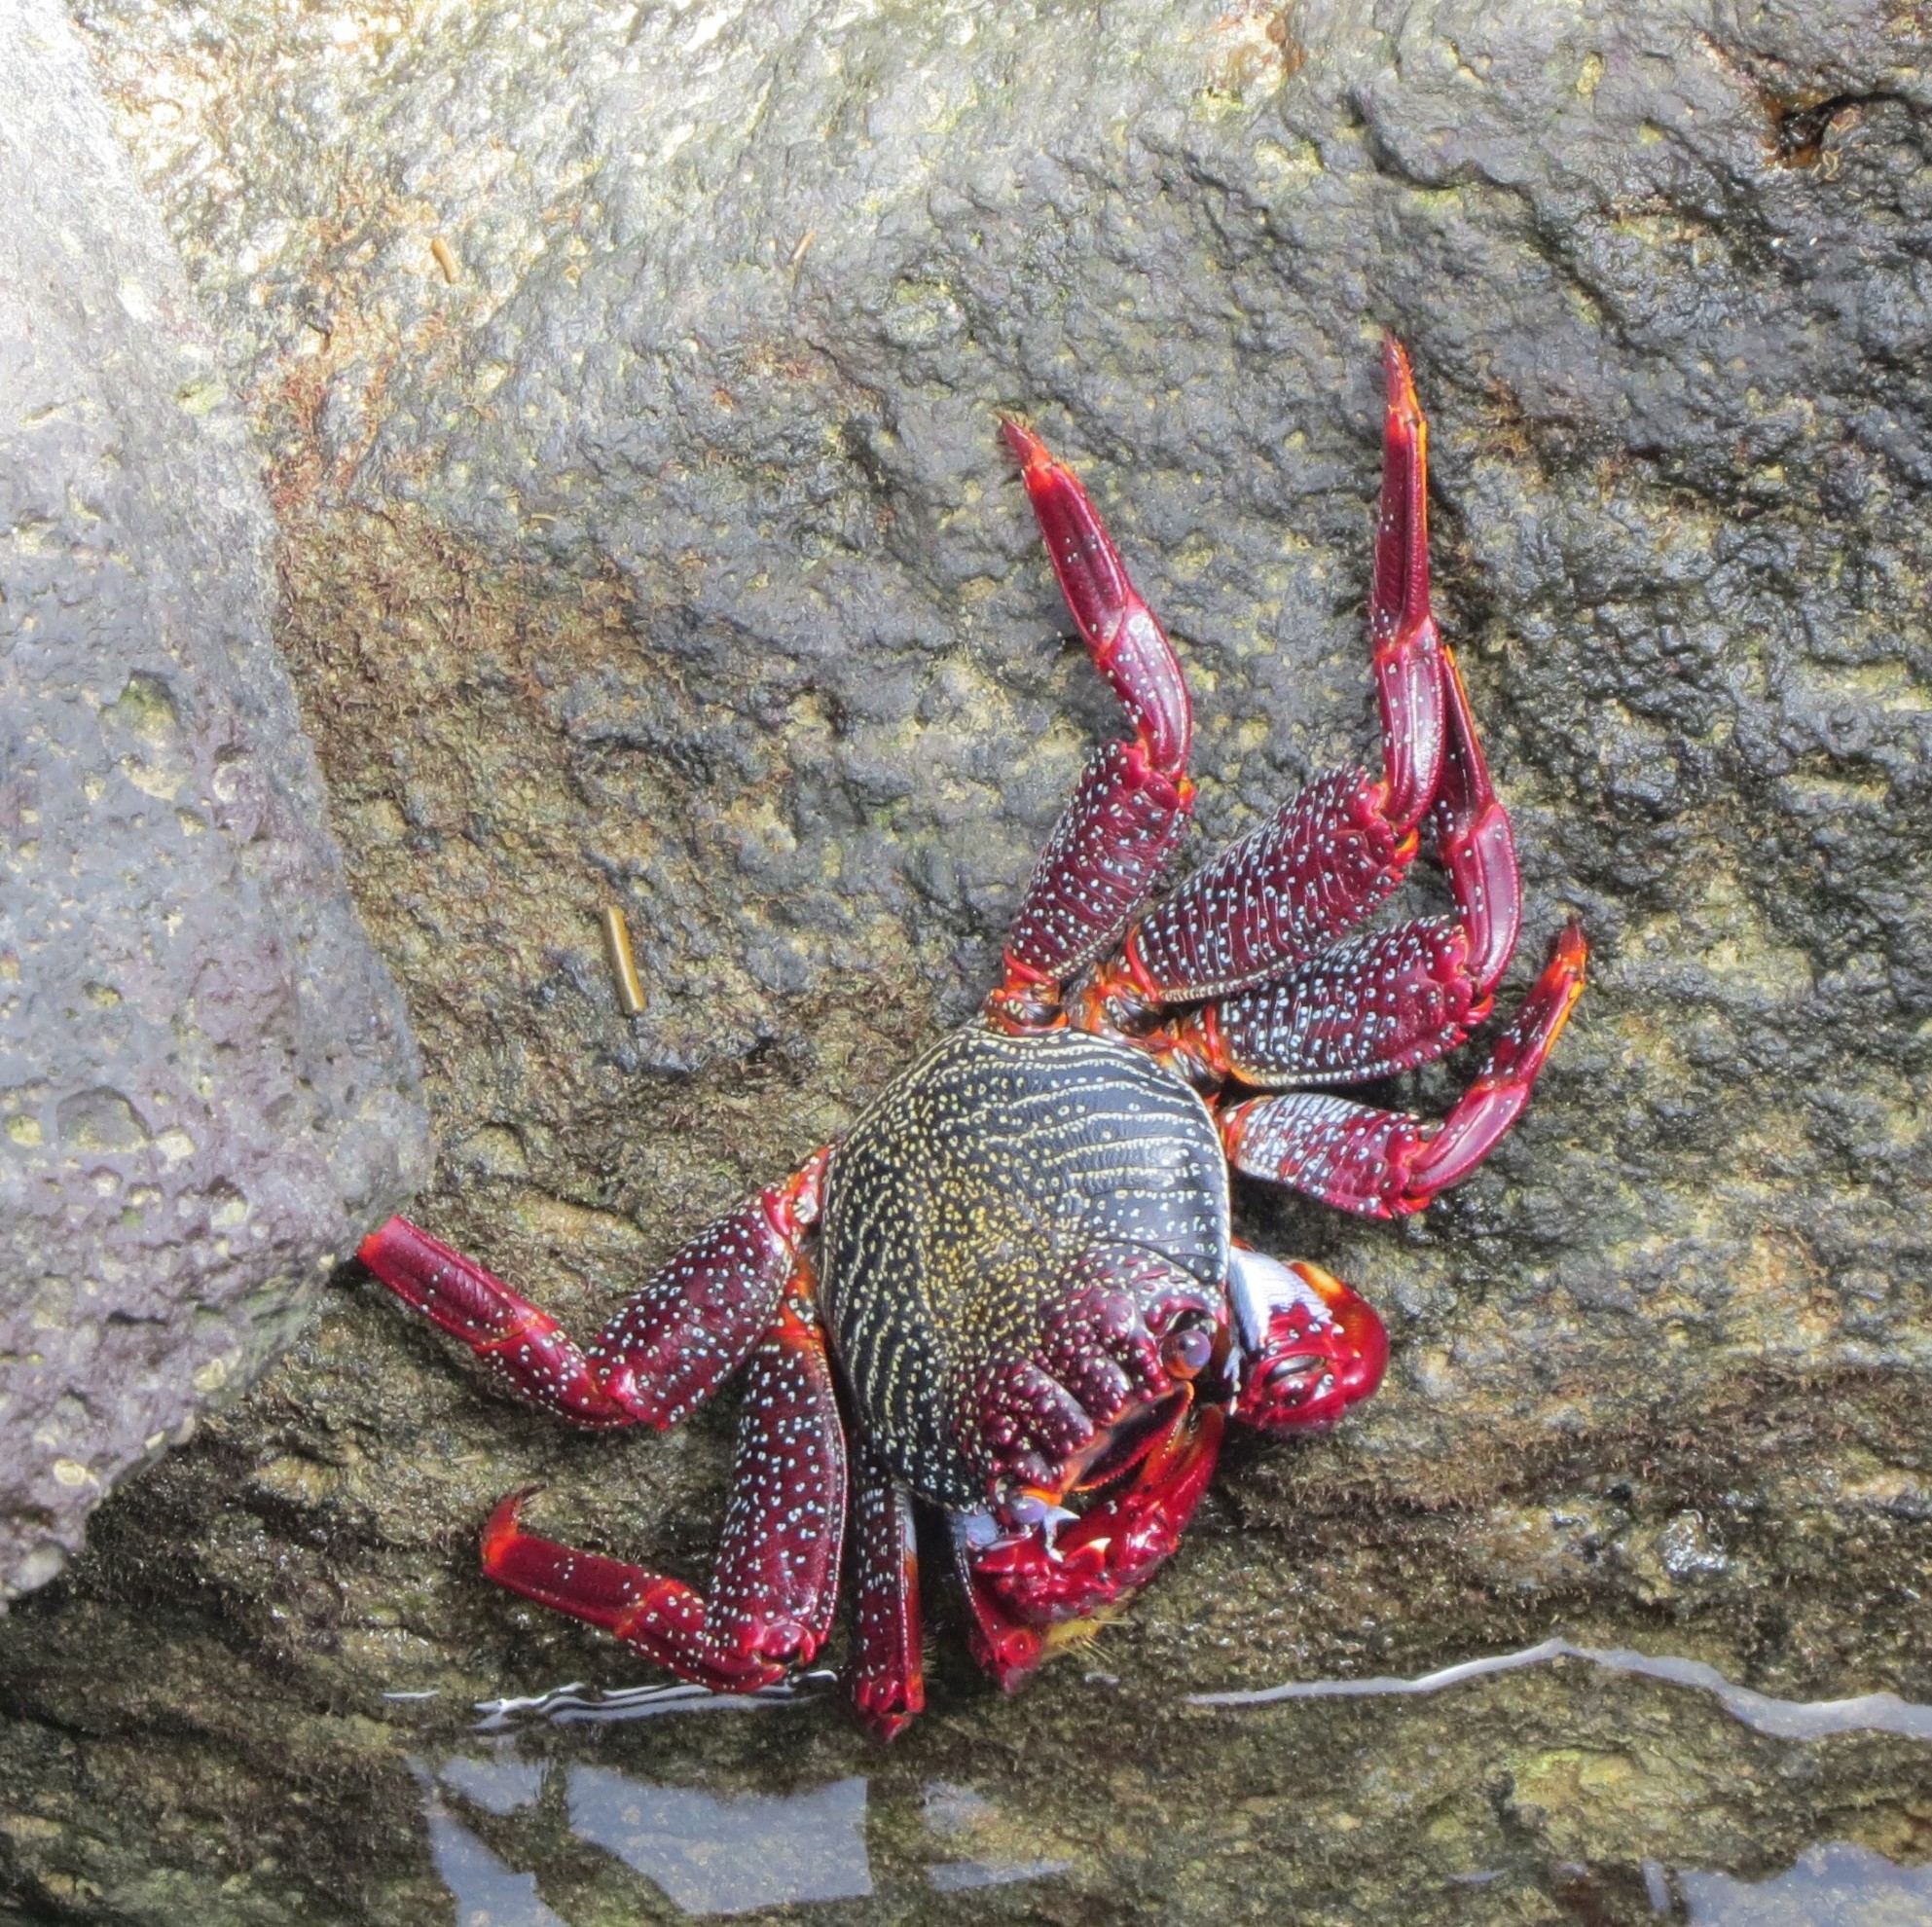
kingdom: Animalia
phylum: Arthropoda
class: Malacostraca
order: Decapoda
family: Grapsidae
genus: Grapsus
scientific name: Grapsus adscensionis
